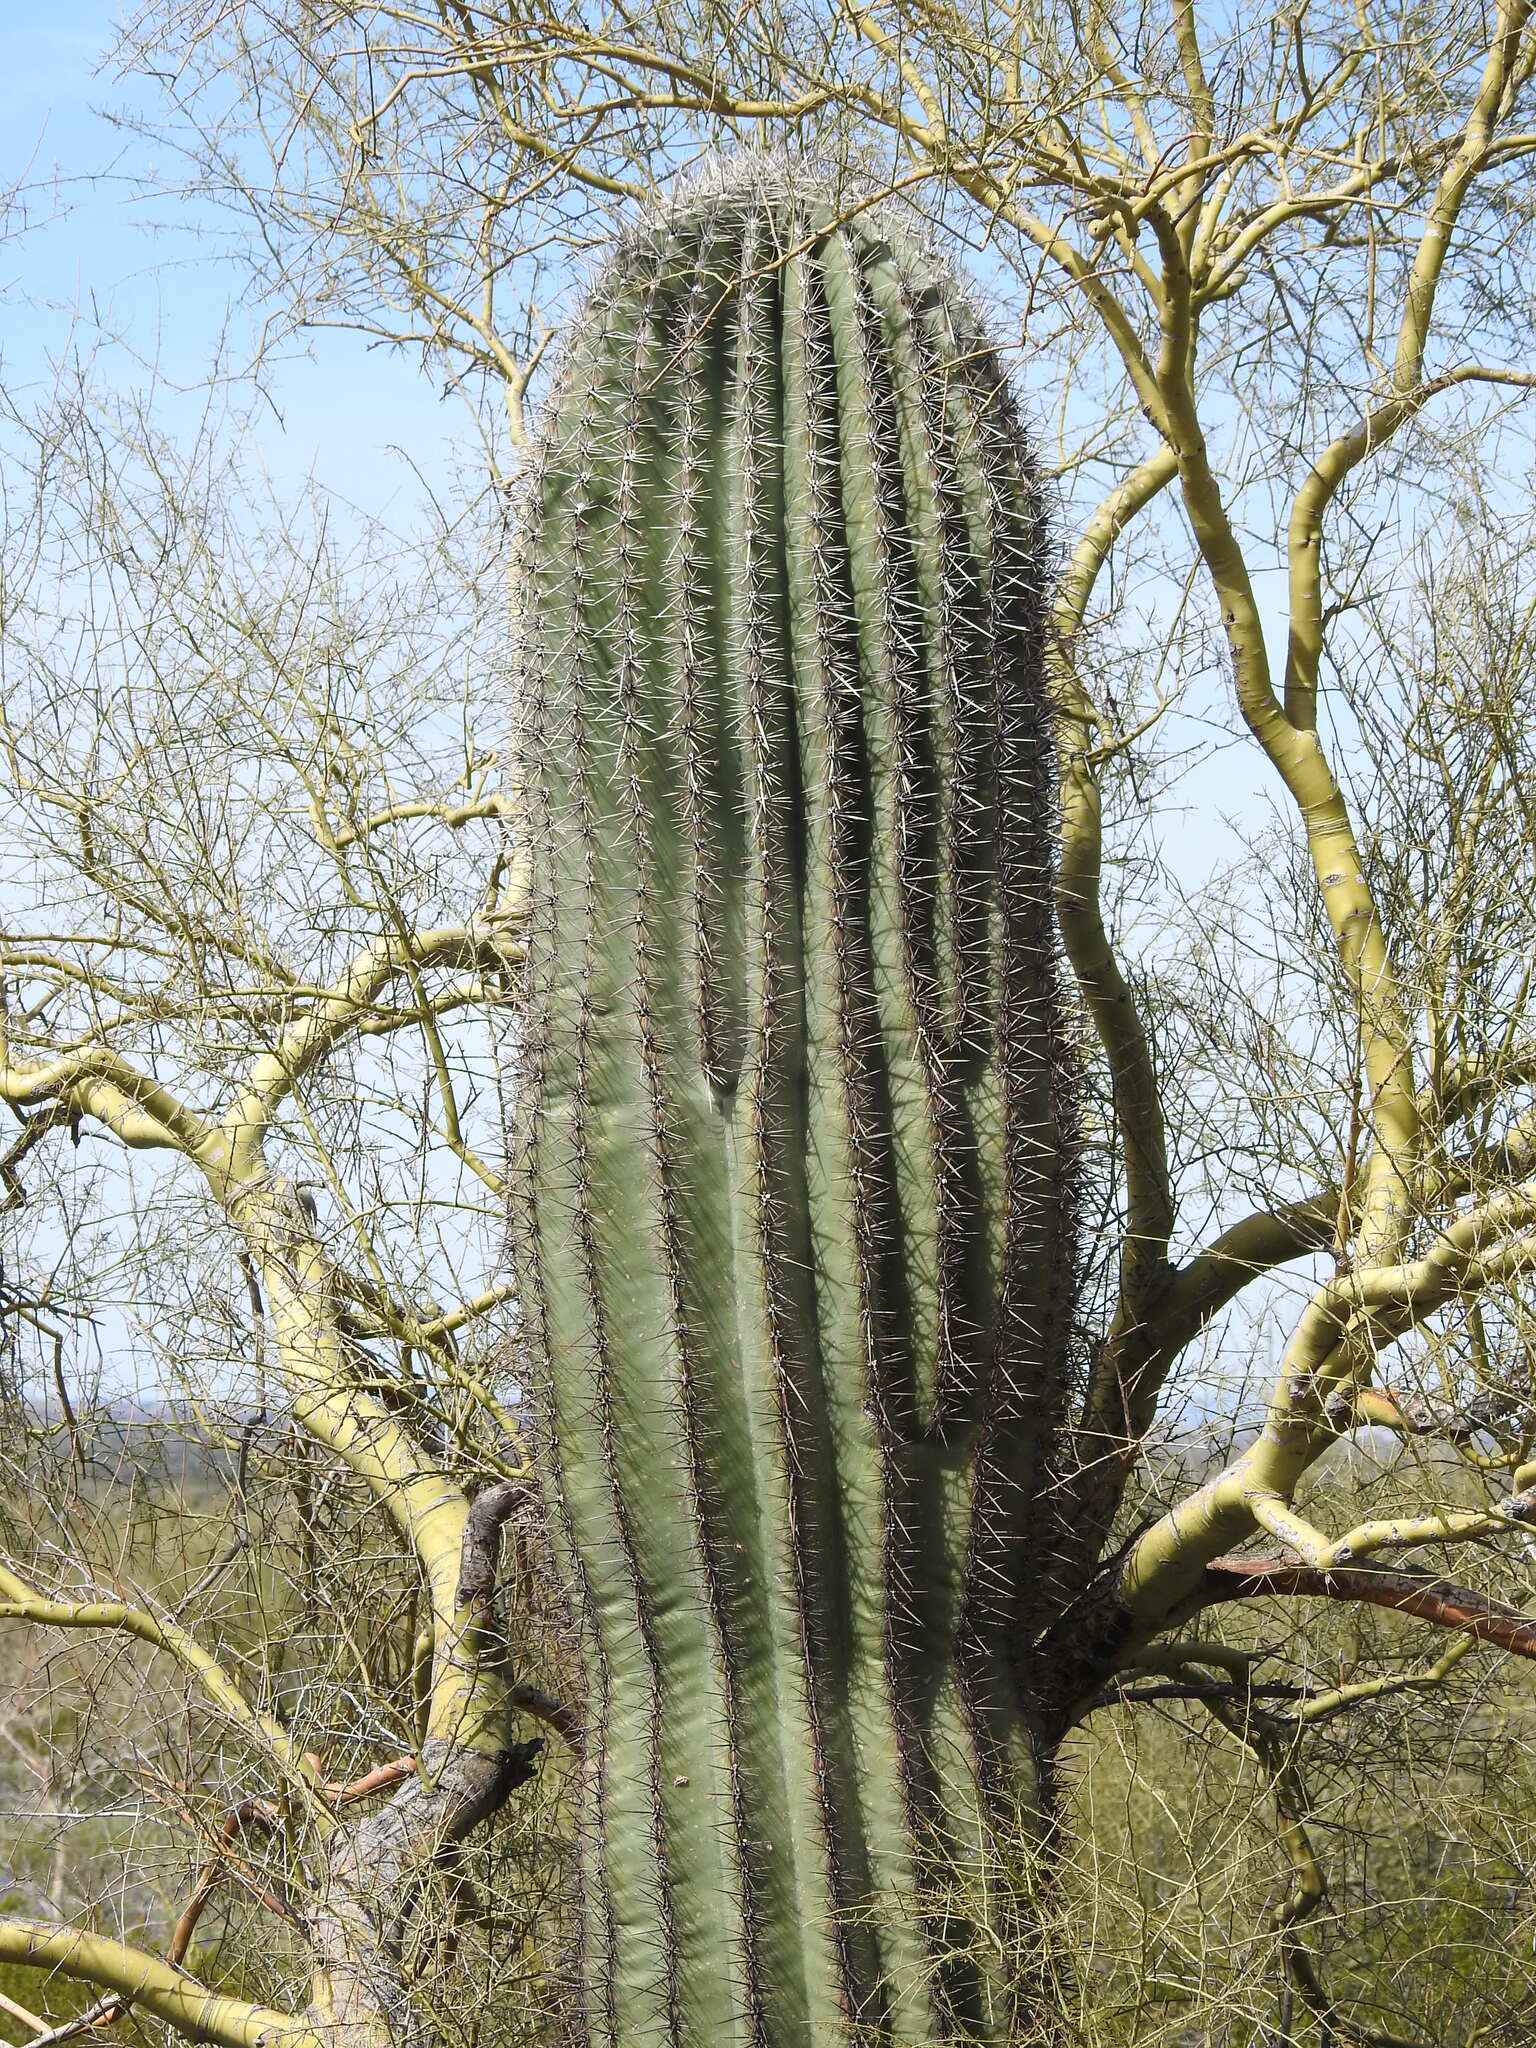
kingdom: Plantae
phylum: Tracheophyta
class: Magnoliopsida
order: Caryophyllales
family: Cactaceae
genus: Carnegiea
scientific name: Carnegiea gigantea
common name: Saguaro
